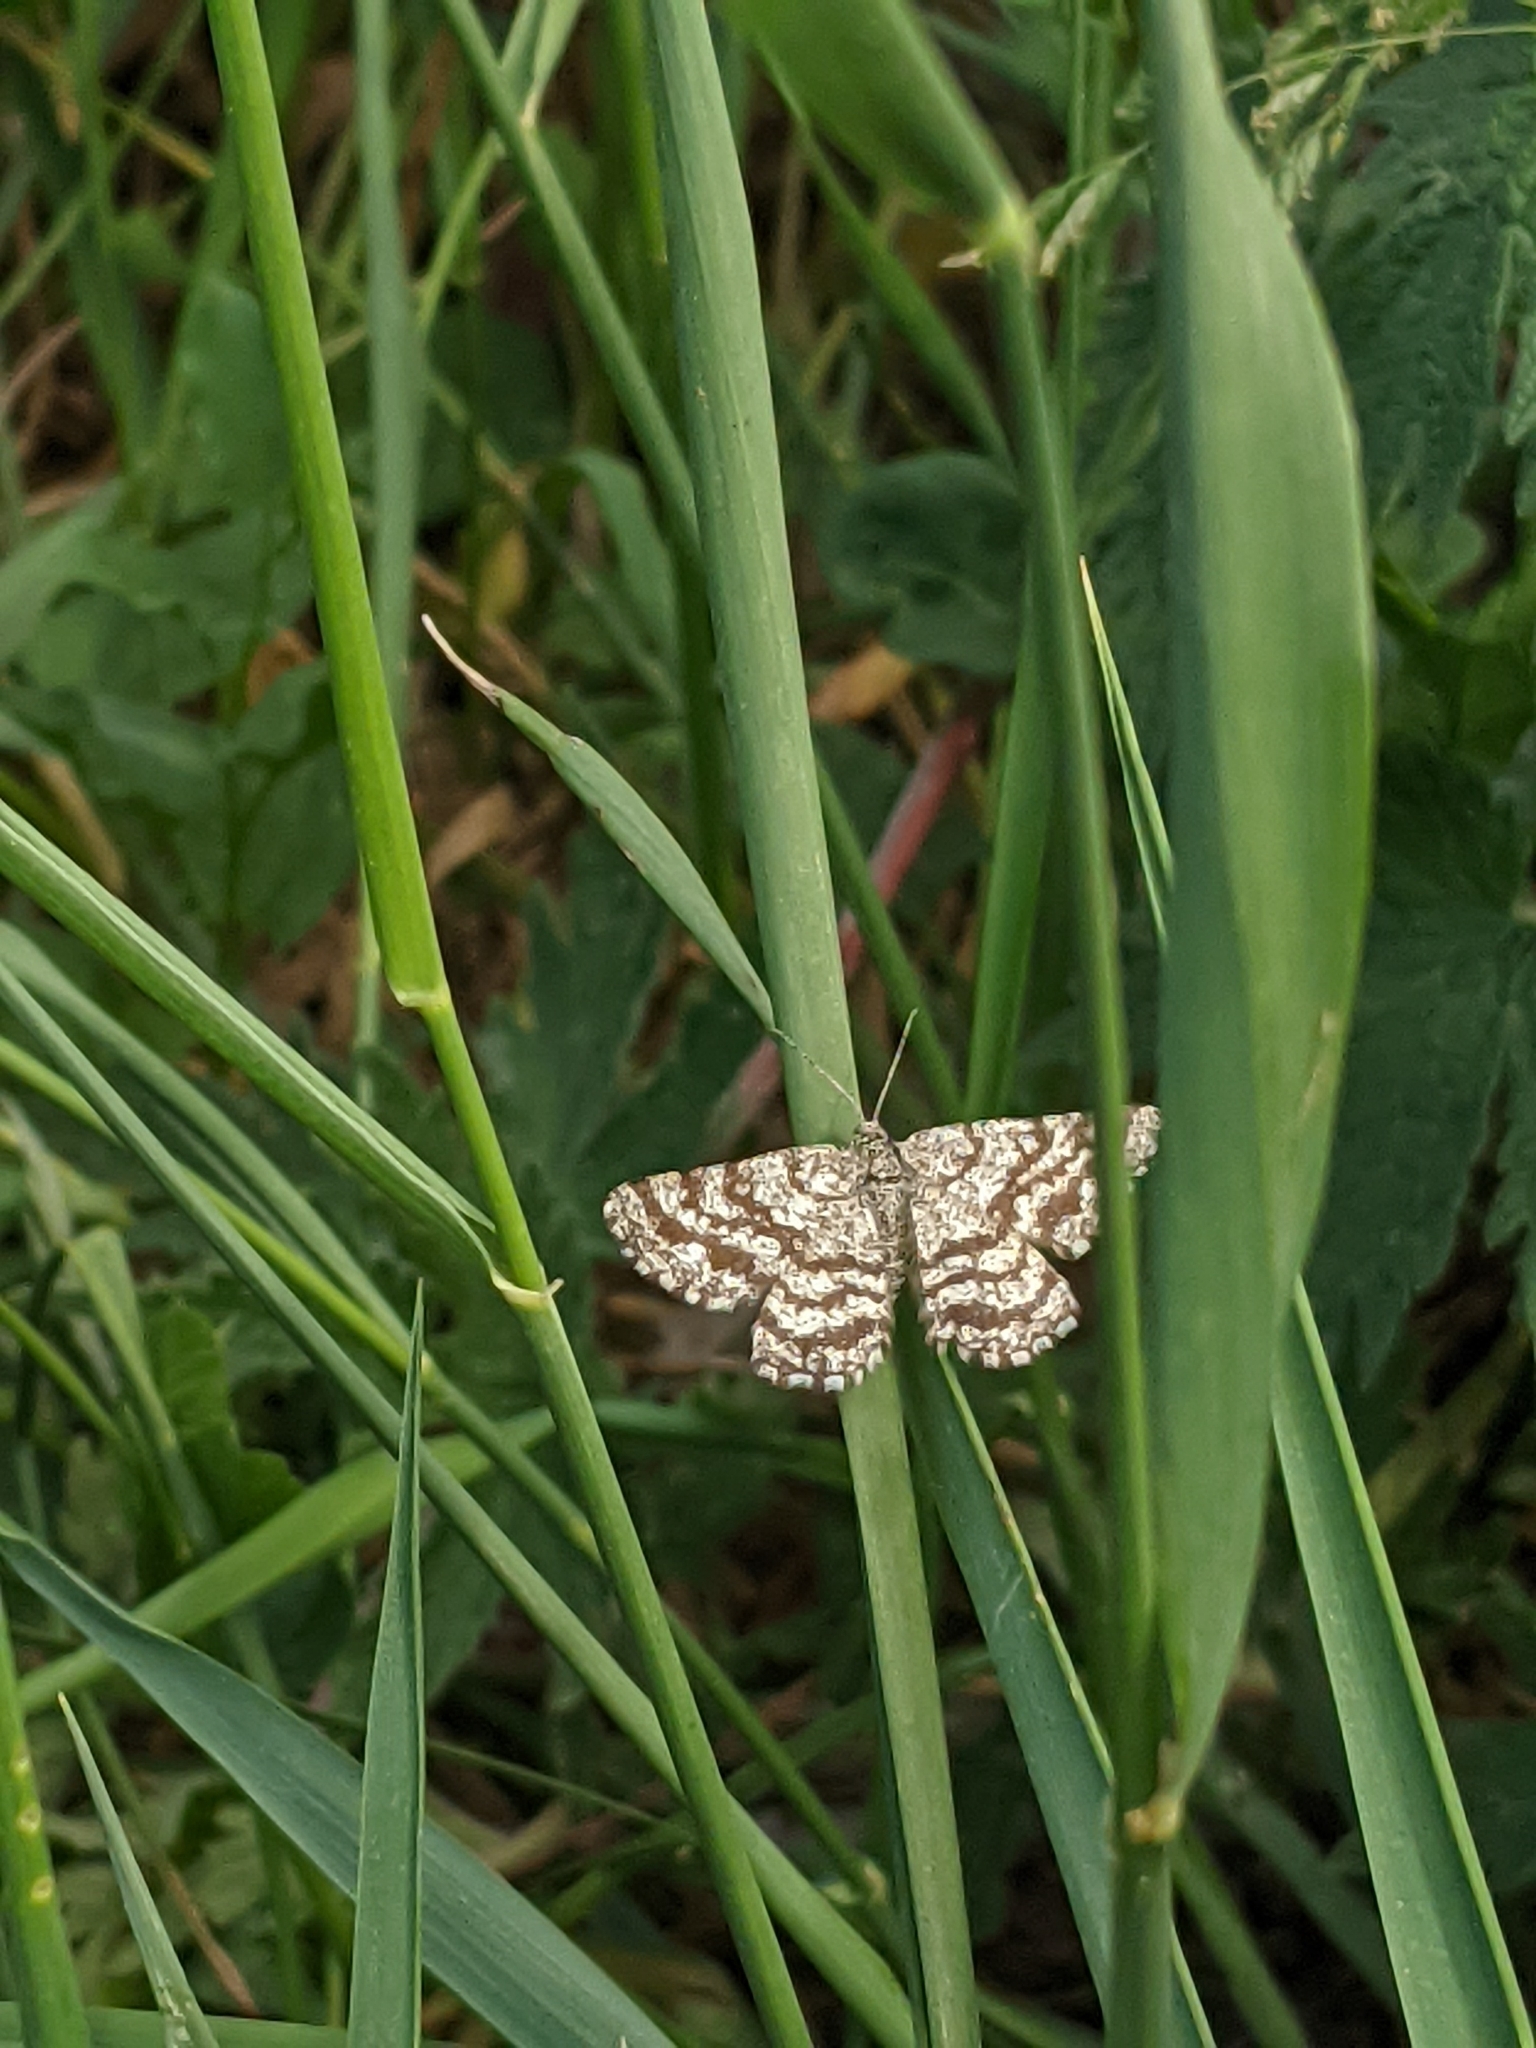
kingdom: Animalia
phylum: Arthropoda
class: Insecta
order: Lepidoptera
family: Geometridae
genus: Ematurga
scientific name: Ematurga atomaria
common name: Common heath
